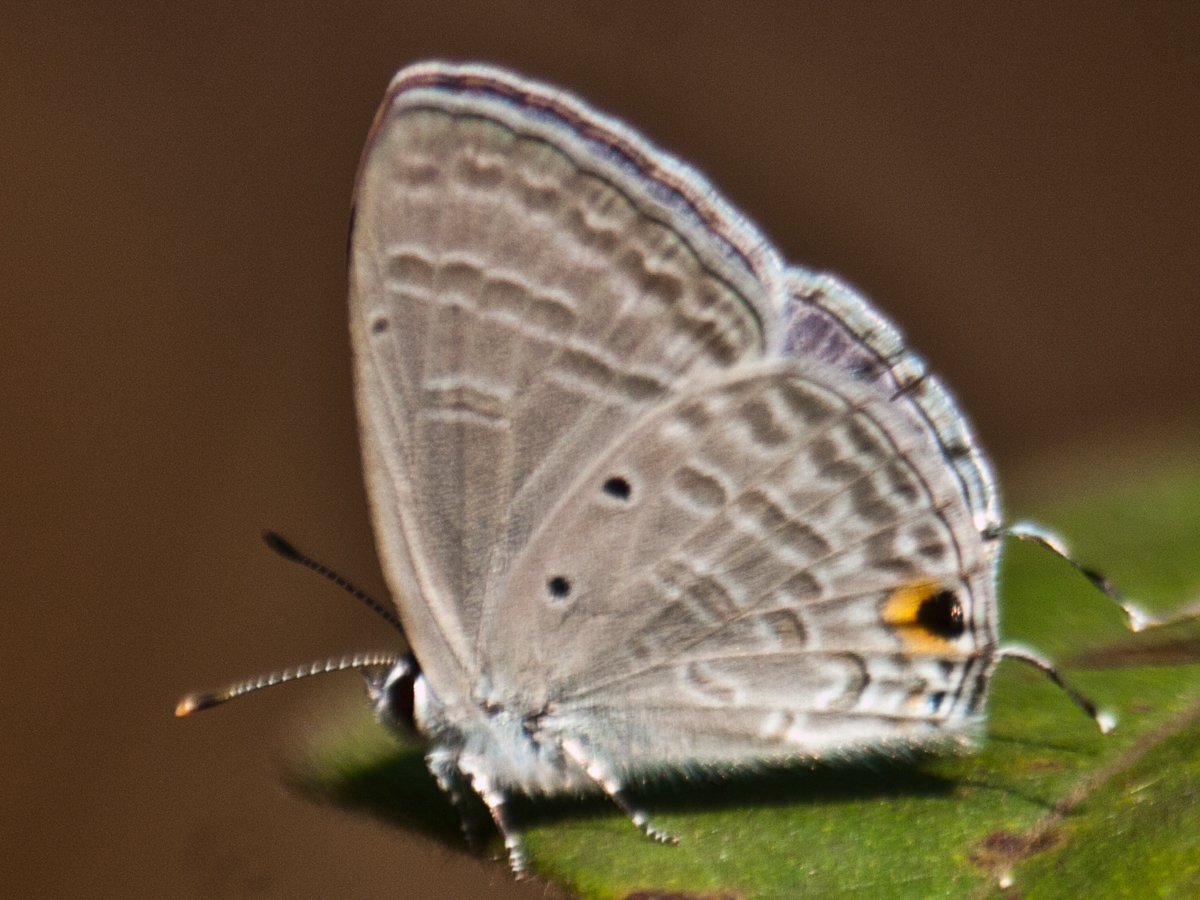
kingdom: Animalia
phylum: Arthropoda
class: Insecta
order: Lepidoptera
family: Lycaenidae
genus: Catochrysops
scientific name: Catochrysops panormus
